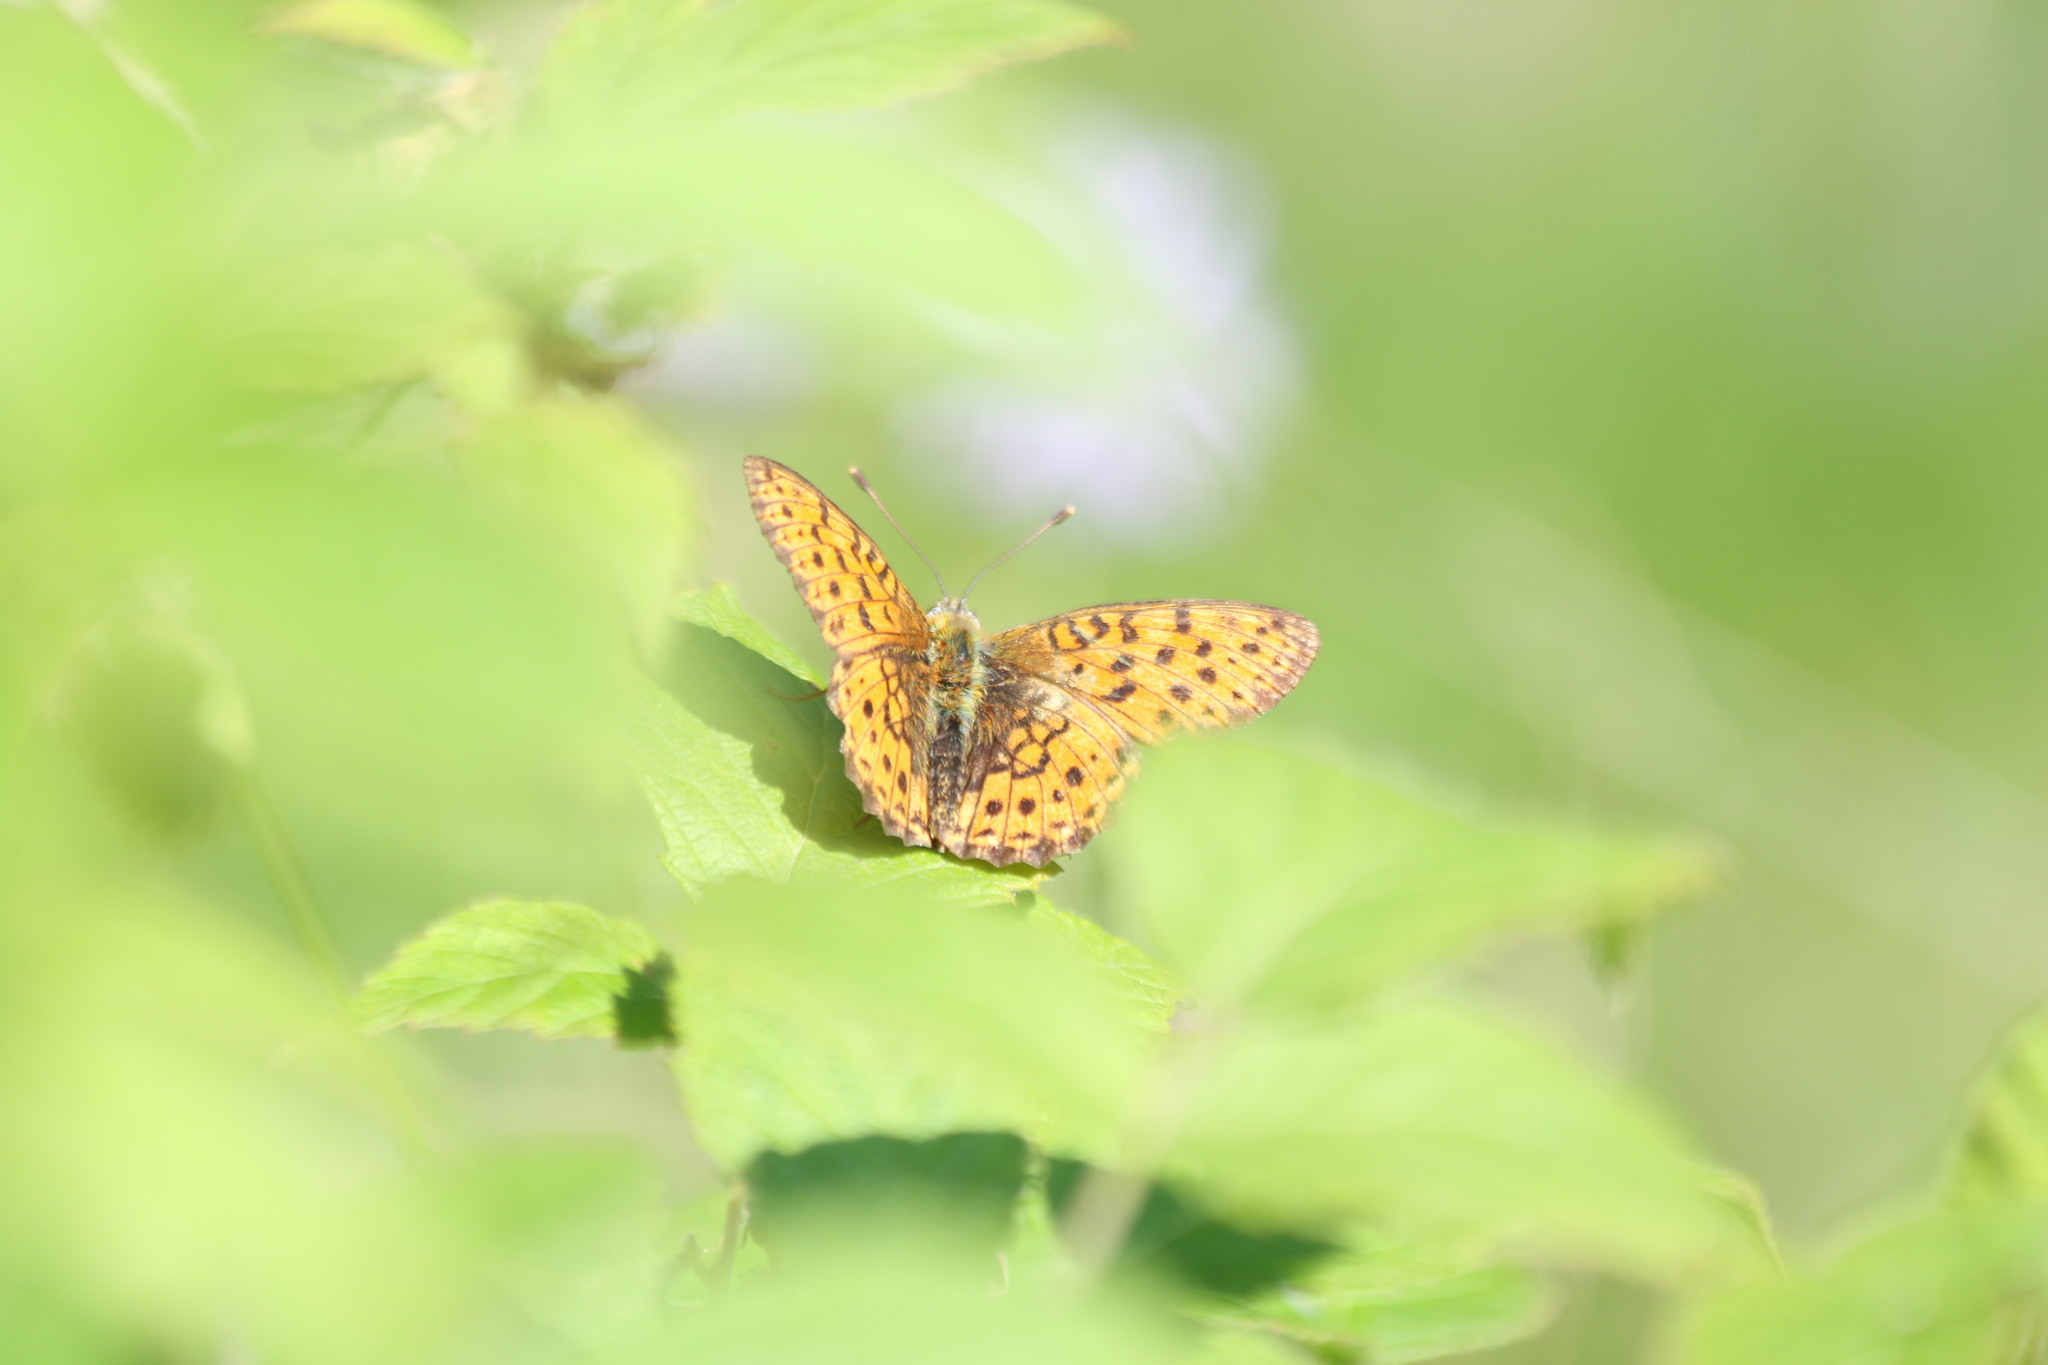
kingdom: Animalia
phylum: Arthropoda
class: Insecta
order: Lepidoptera
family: Nymphalidae
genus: Brenthis
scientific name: Brenthis ino
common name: Lesser marbled fritillary
